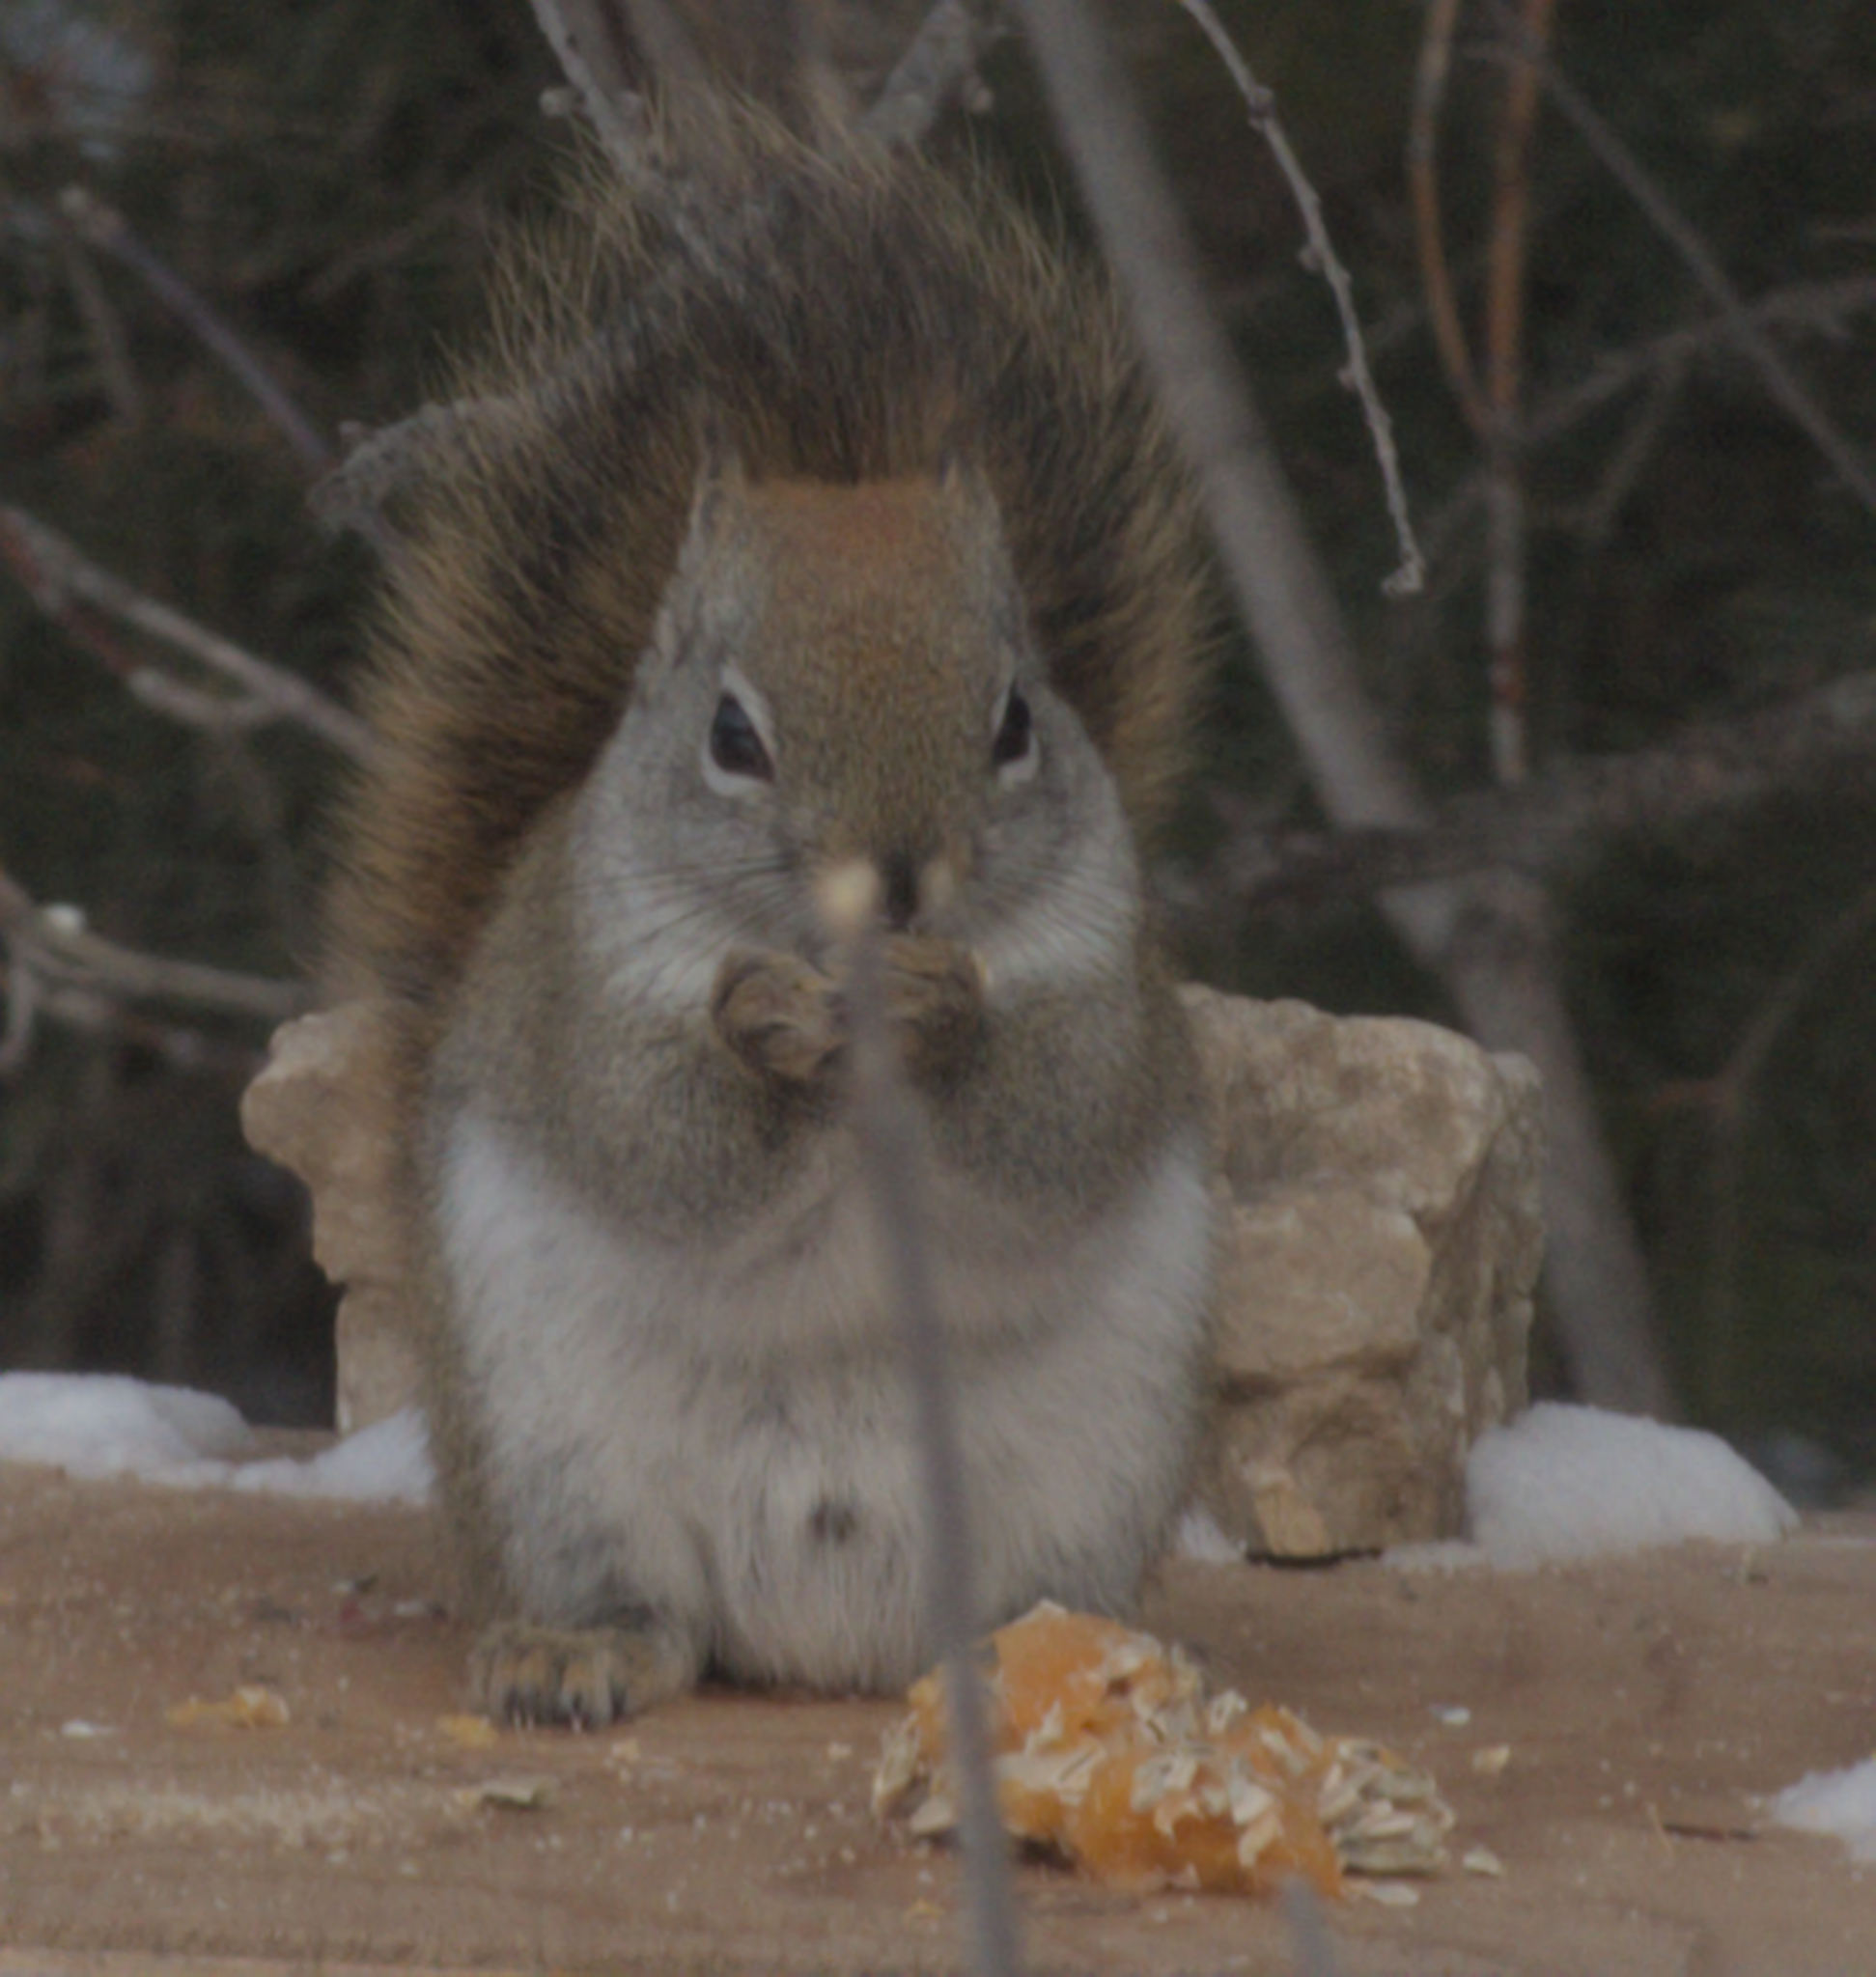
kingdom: Animalia
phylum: Chordata
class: Mammalia
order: Rodentia
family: Sciuridae
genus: Tamiasciurus
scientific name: Tamiasciurus hudsonicus
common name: Red squirrel
